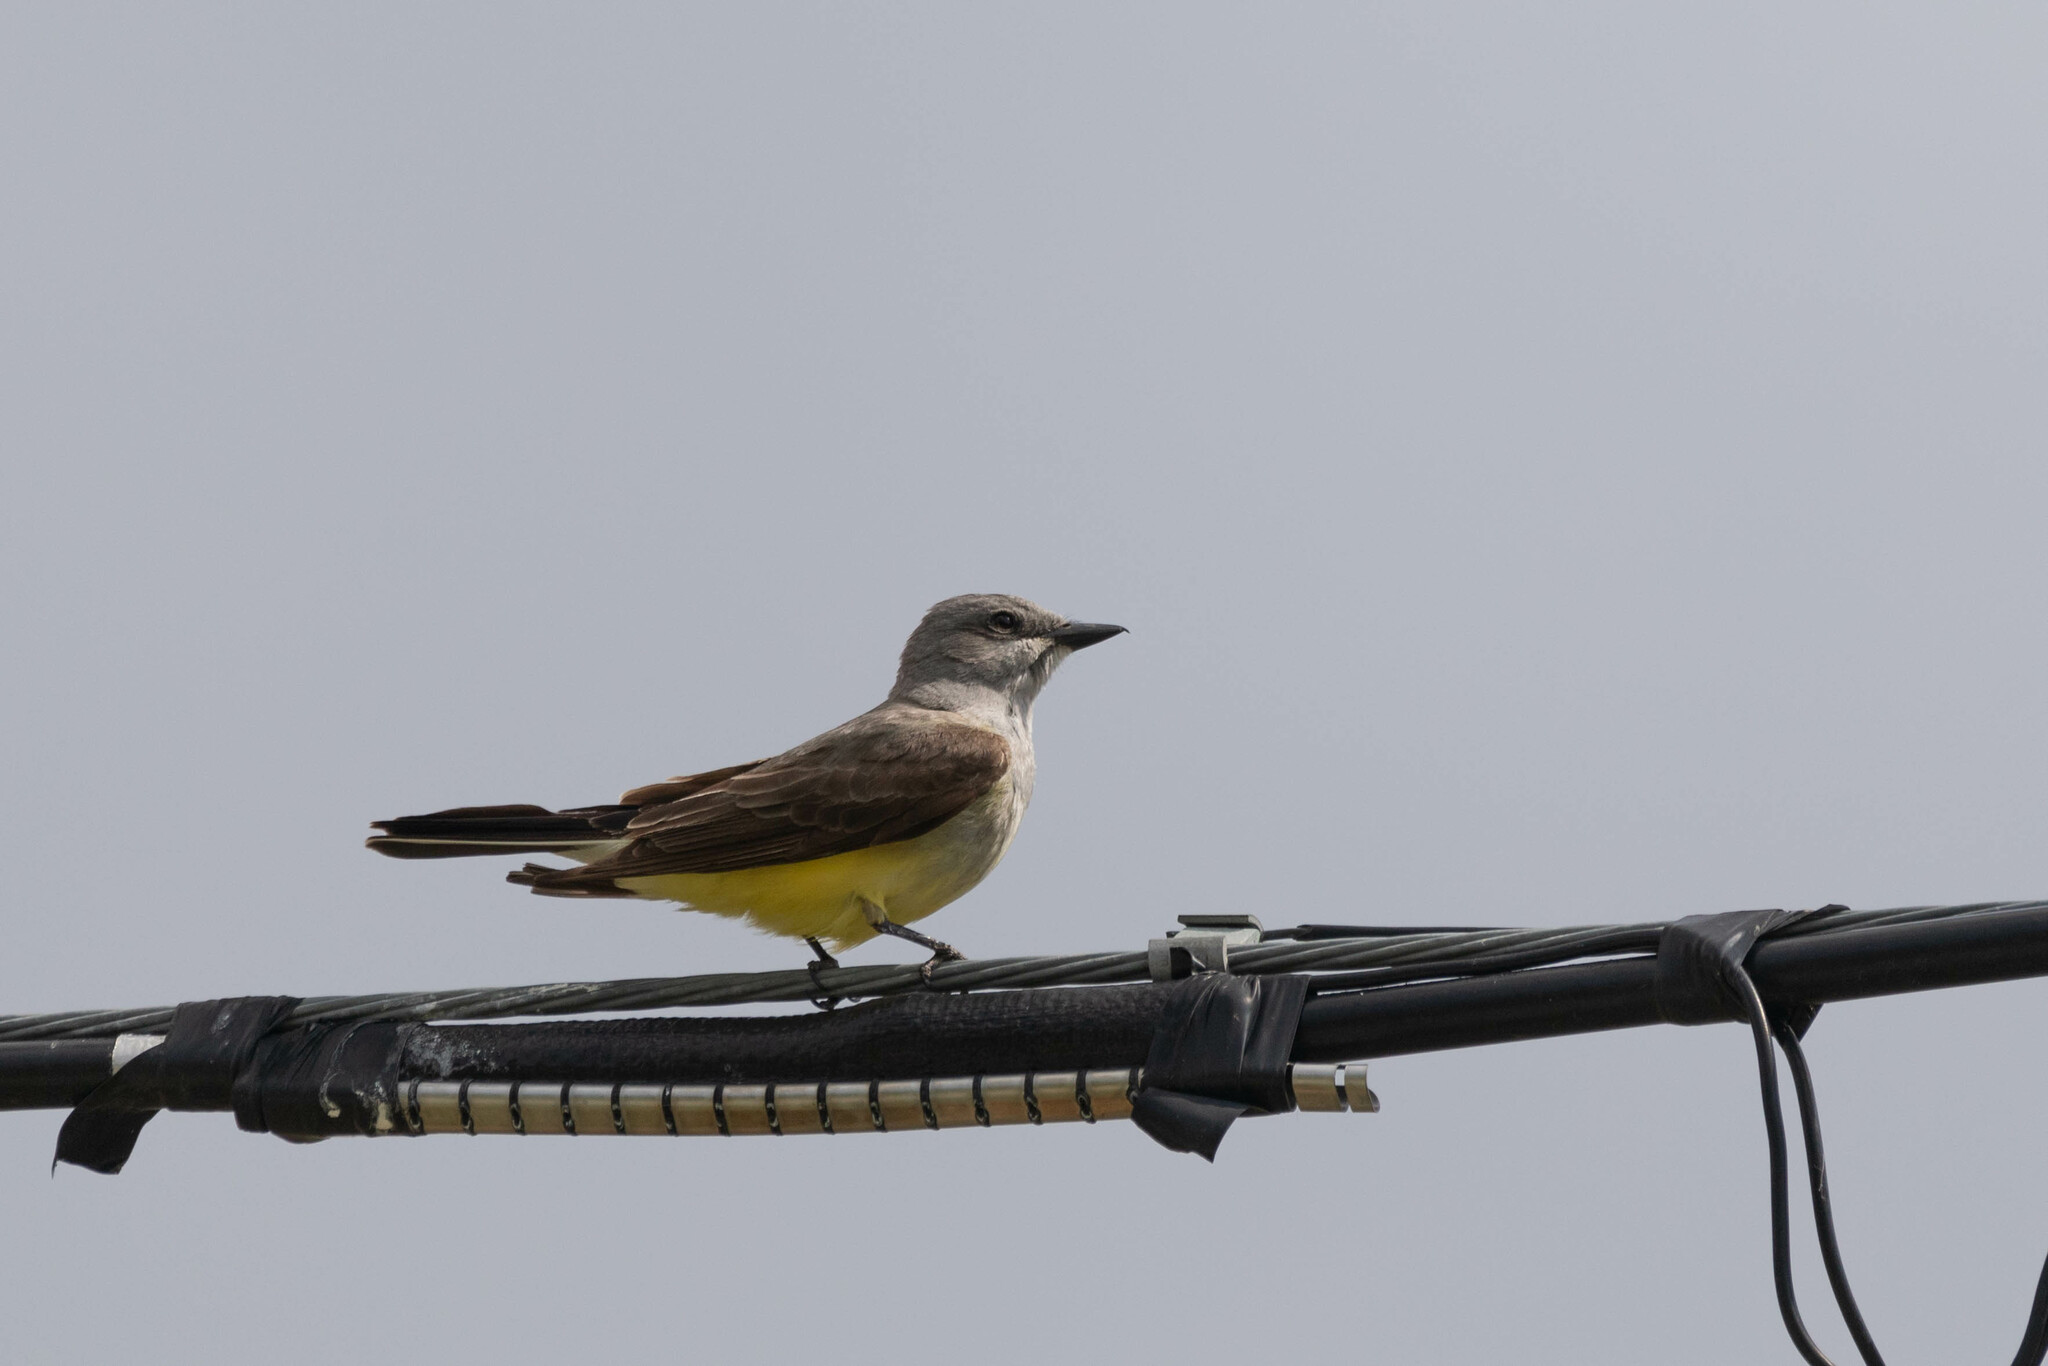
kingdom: Animalia
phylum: Chordata
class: Aves
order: Passeriformes
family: Tyrannidae
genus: Tyrannus
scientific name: Tyrannus verticalis
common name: Western kingbird
